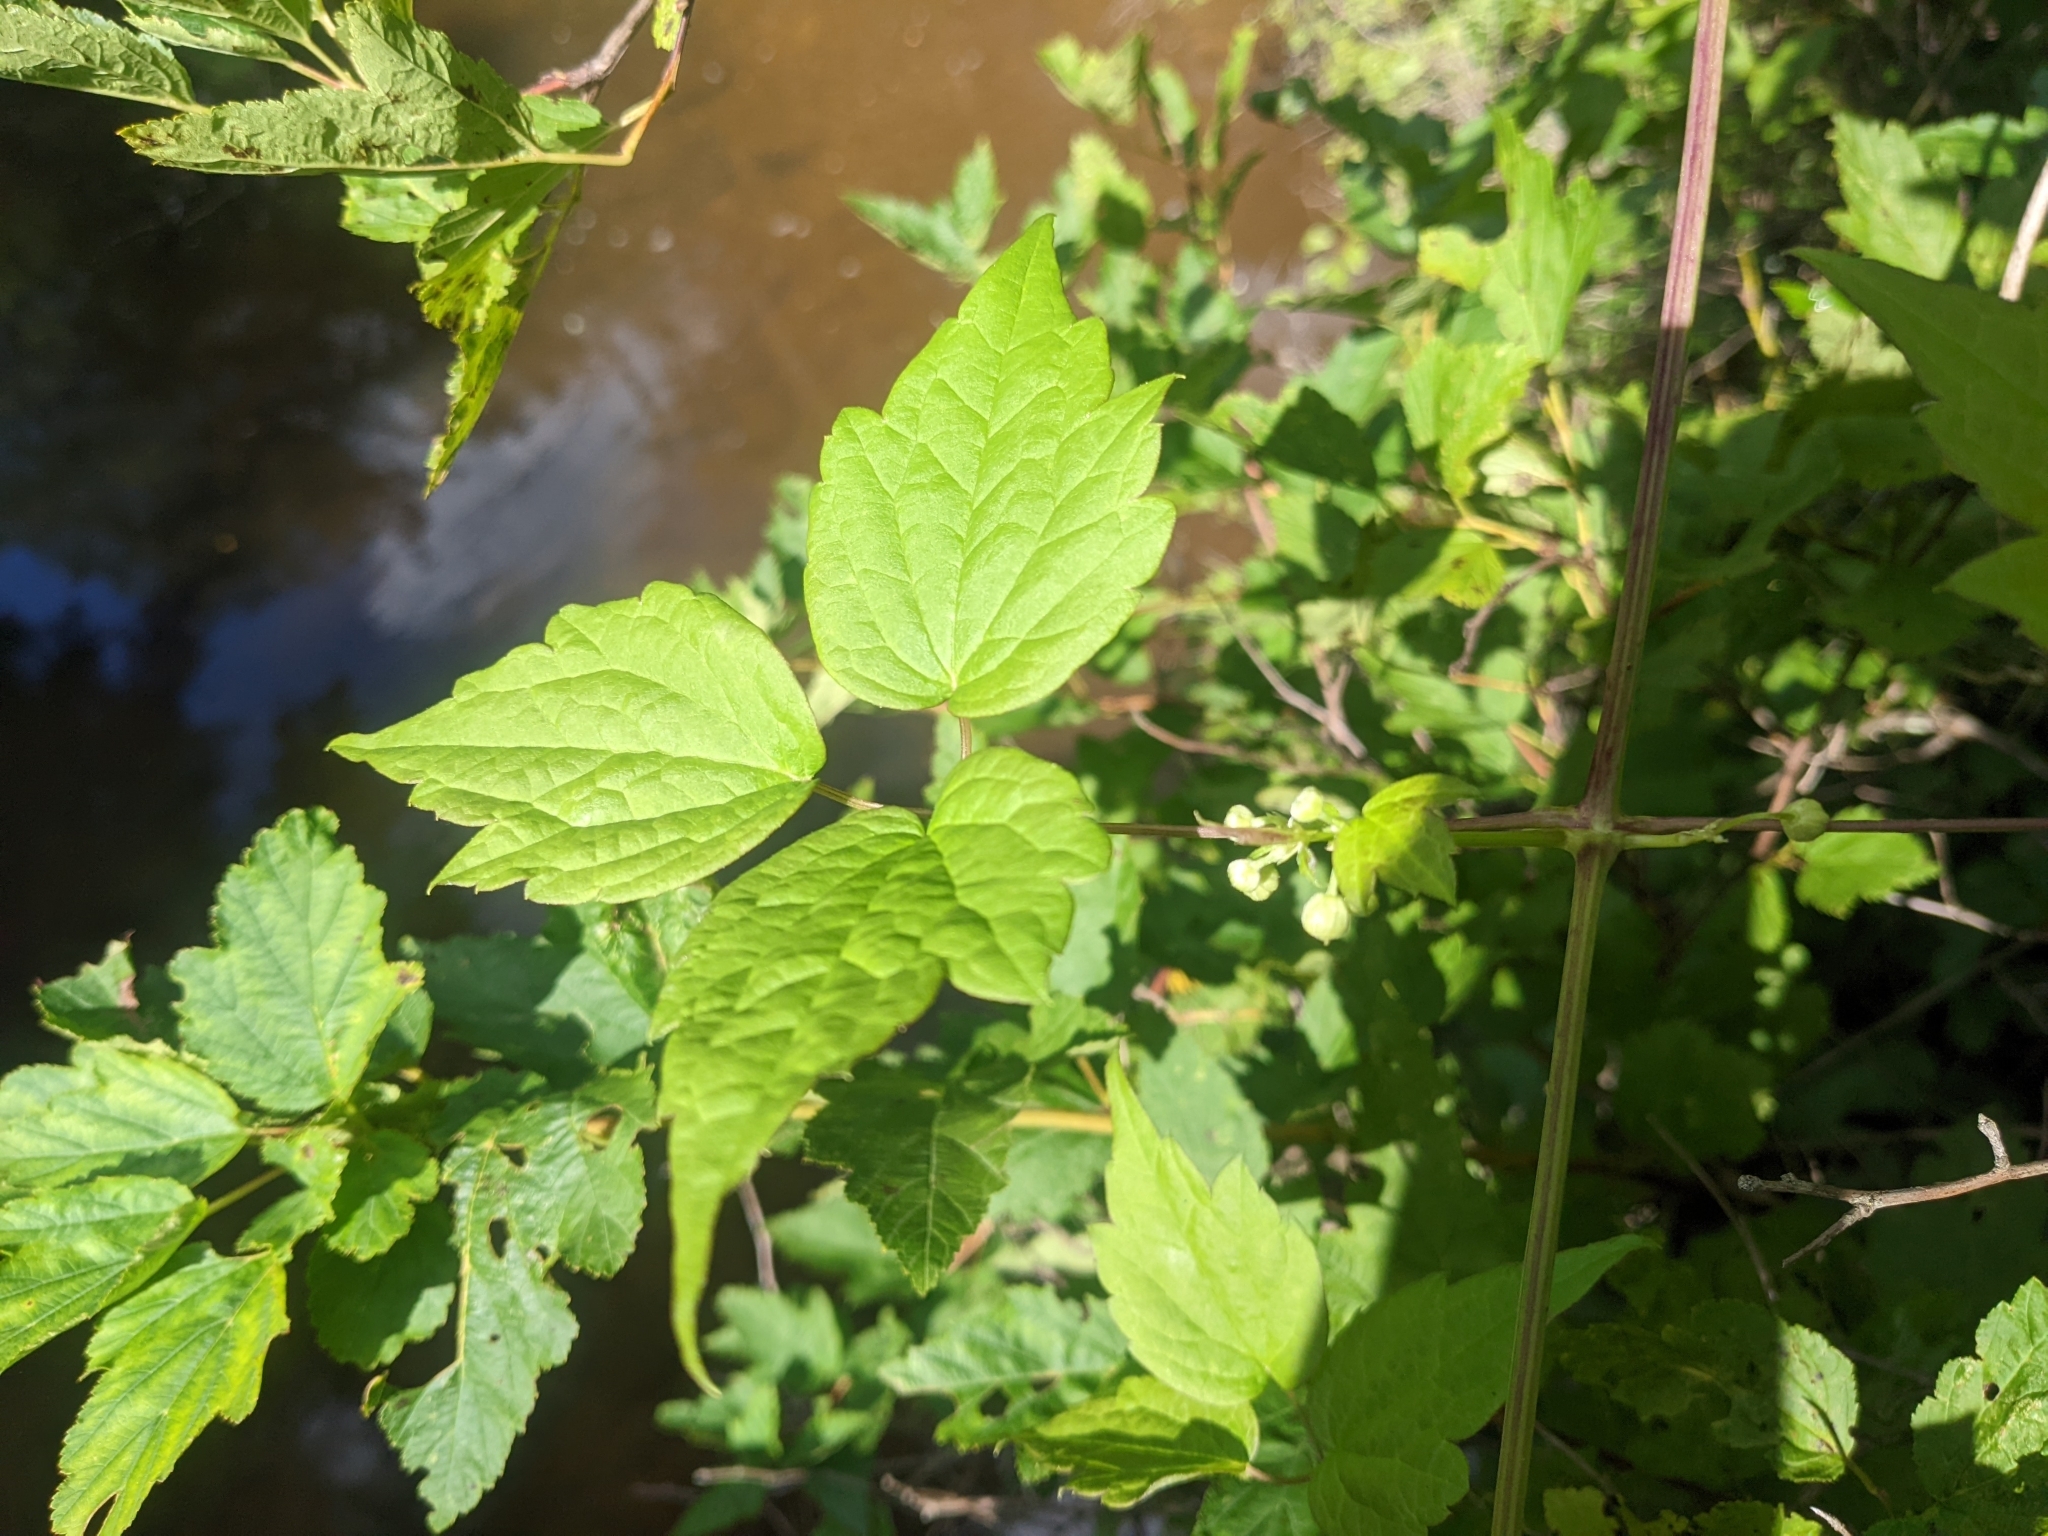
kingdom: Plantae
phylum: Tracheophyta
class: Magnoliopsida
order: Ranunculales
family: Ranunculaceae
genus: Clematis
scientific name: Clematis virginiana
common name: Virgin's-bower
